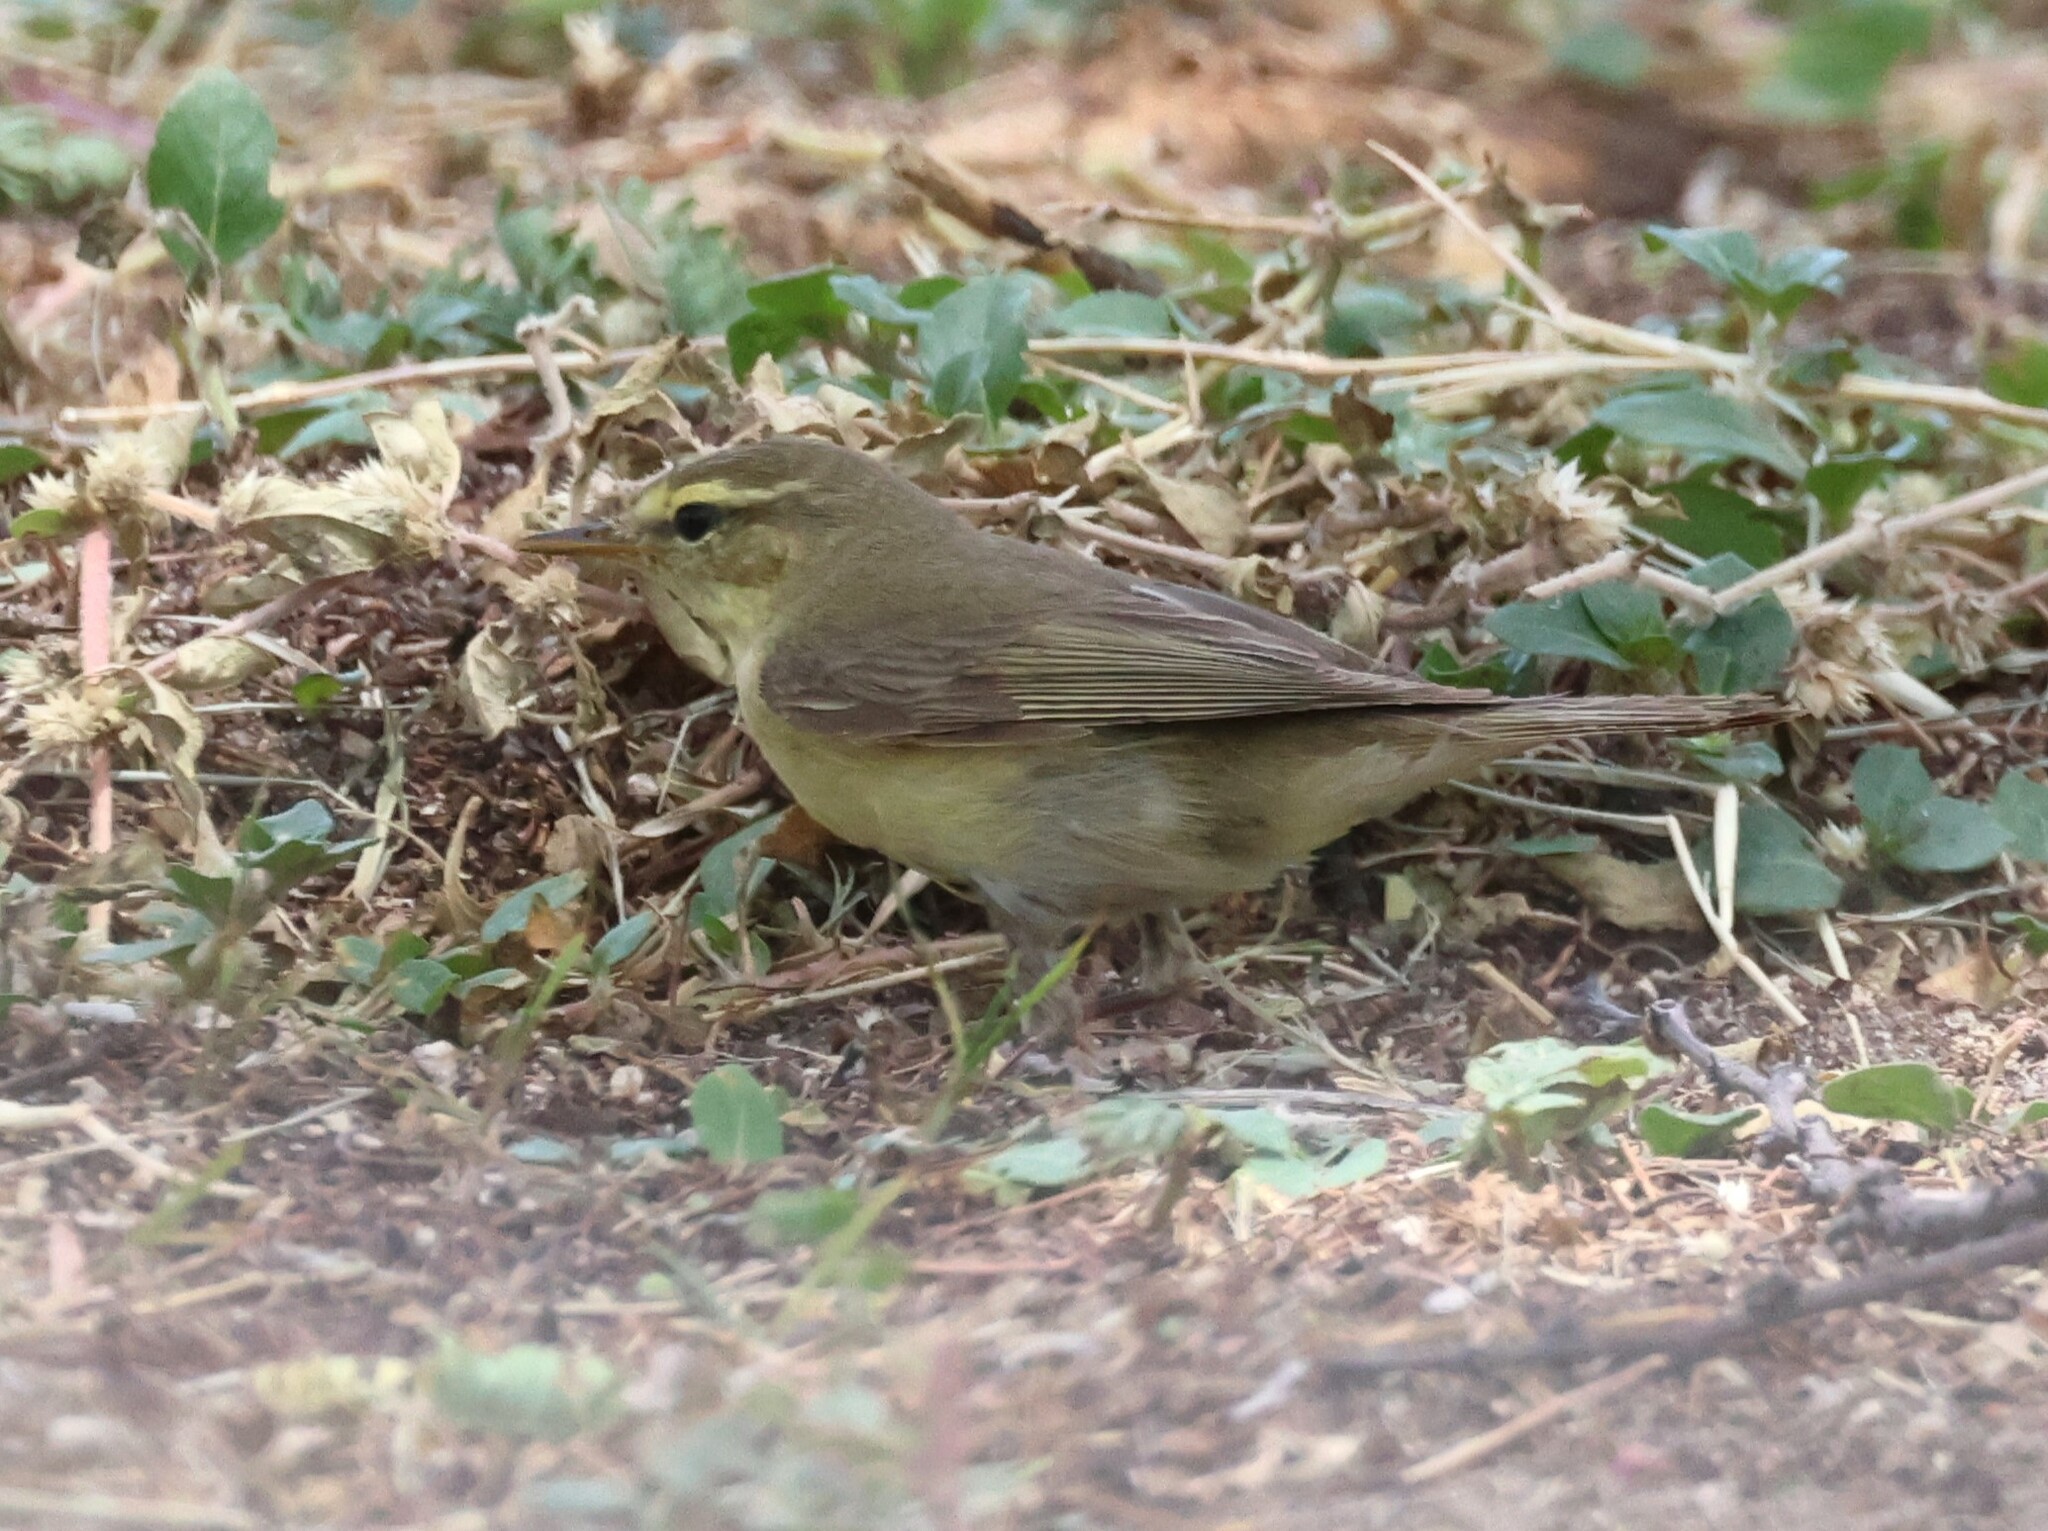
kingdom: Animalia
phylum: Chordata
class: Aves
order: Passeriformes
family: Phylloscopidae
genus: Phylloscopus
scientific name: Phylloscopus trochilus
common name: Willow warbler
